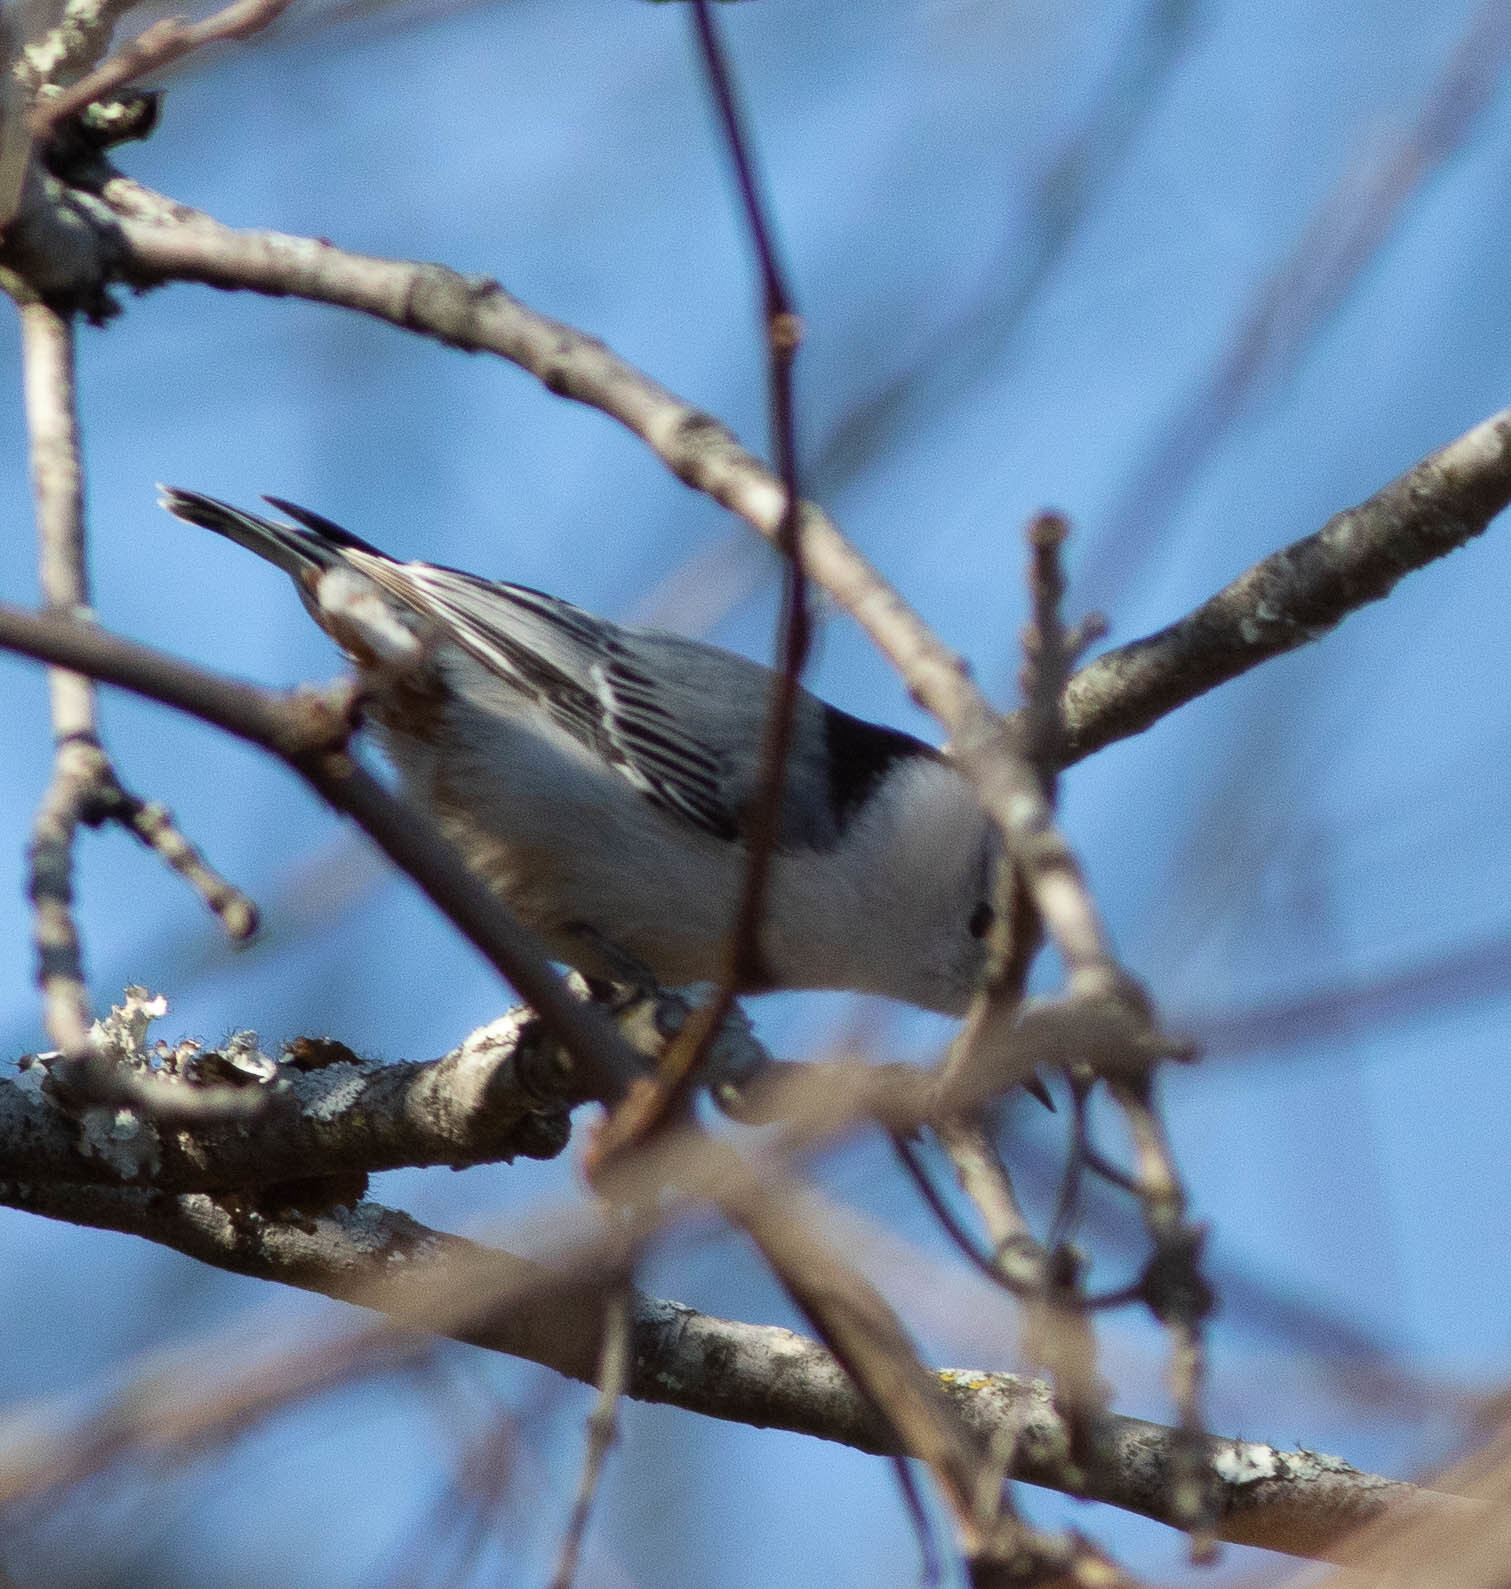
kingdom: Animalia
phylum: Chordata
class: Aves
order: Passeriformes
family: Sittidae
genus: Sitta
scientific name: Sitta carolinensis
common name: White-breasted nuthatch
